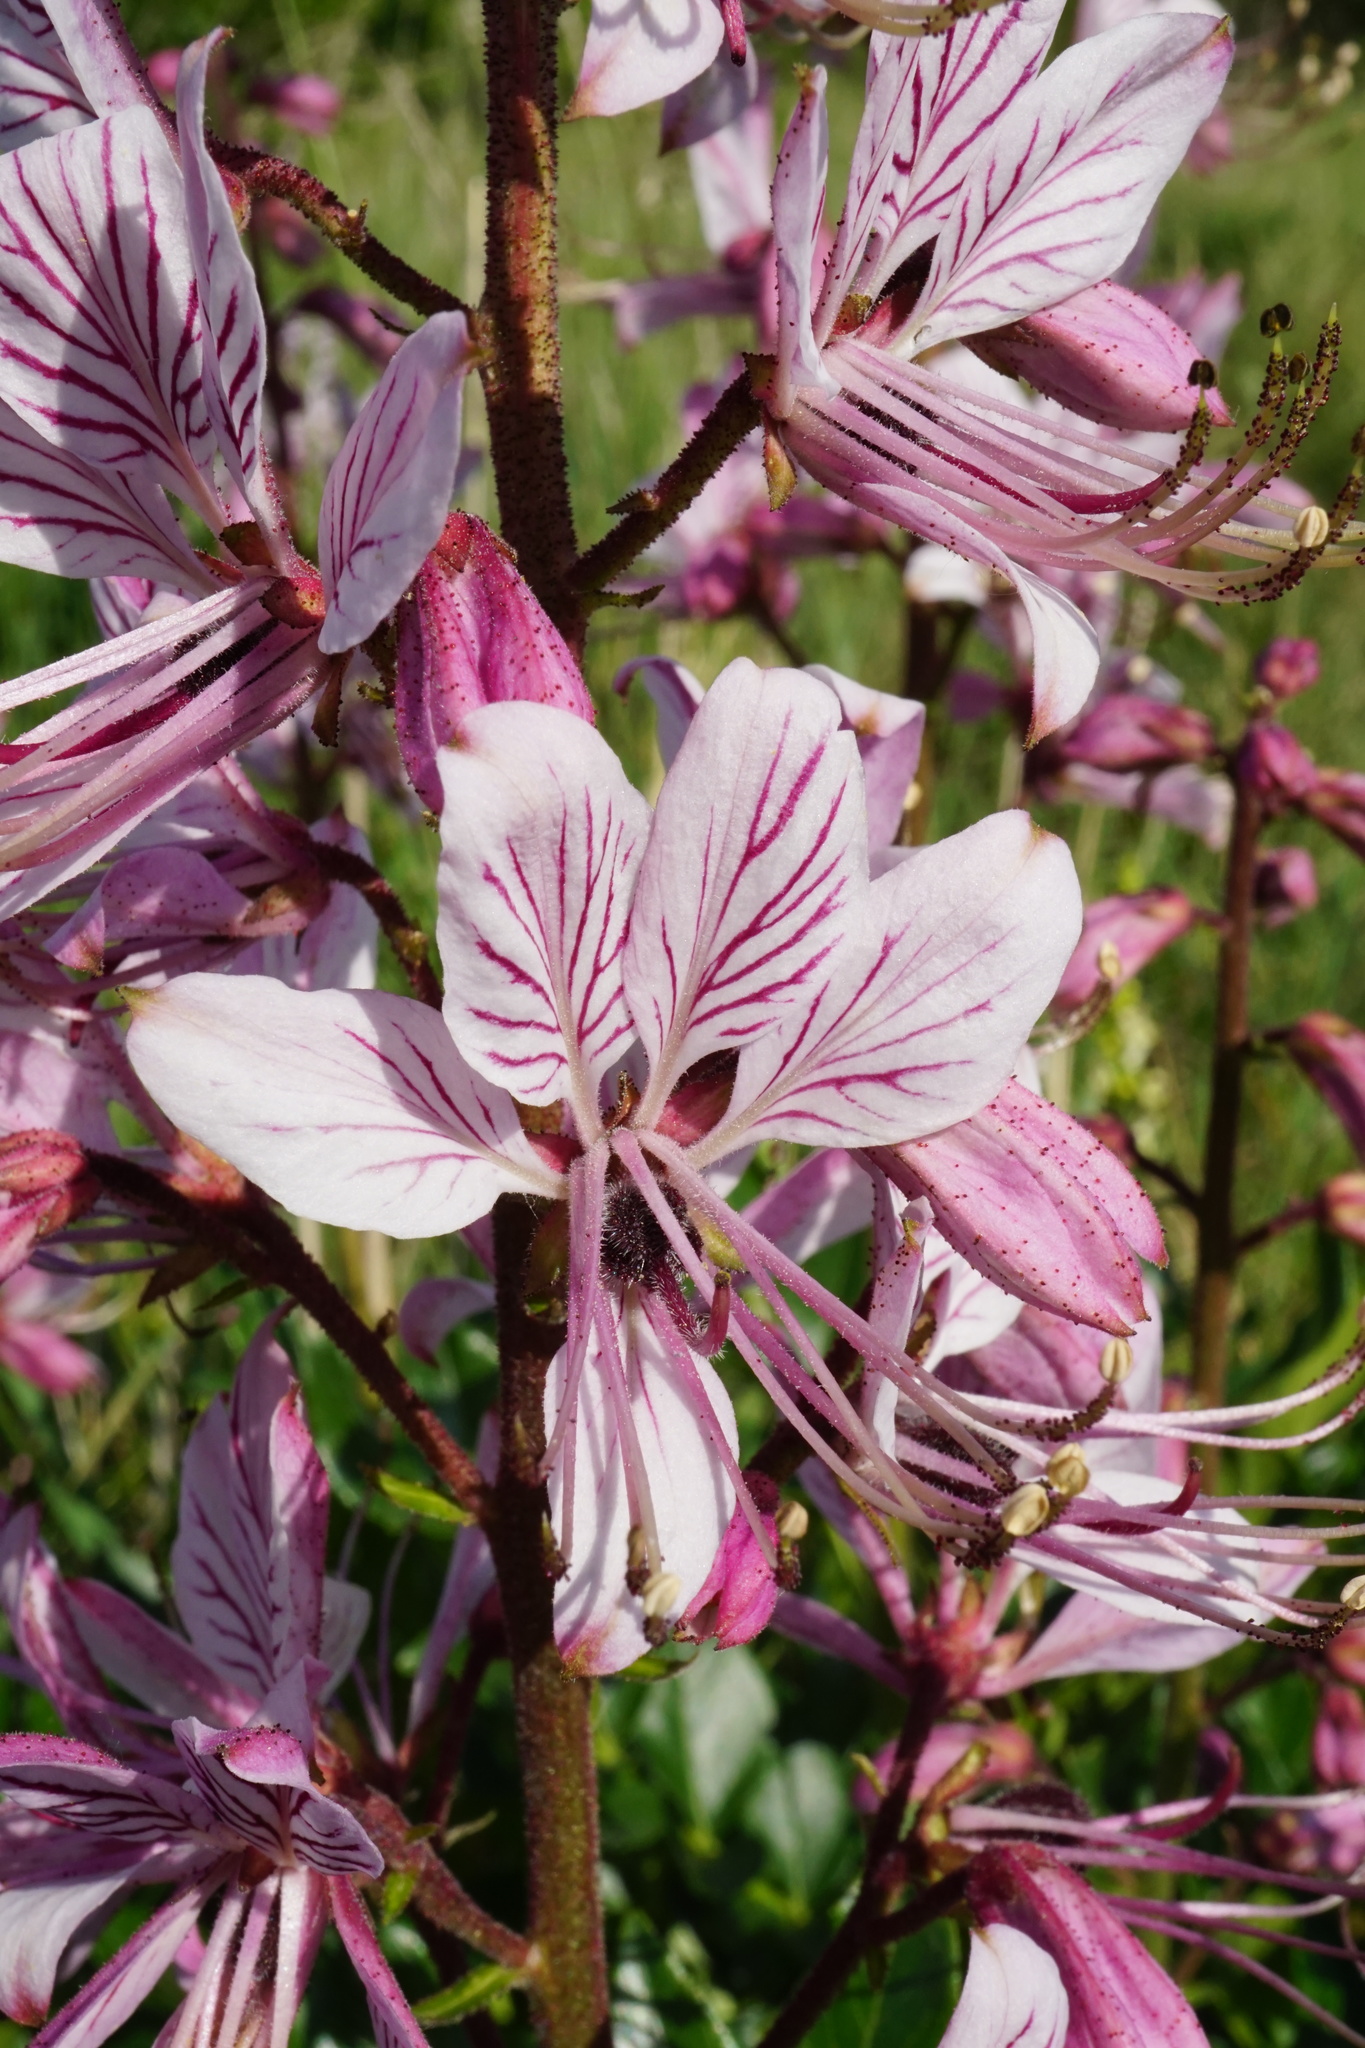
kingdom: Plantae
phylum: Tracheophyta
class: Magnoliopsida
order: Sapindales
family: Rutaceae
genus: Dictamnus
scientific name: Dictamnus albus
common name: Gasplant
